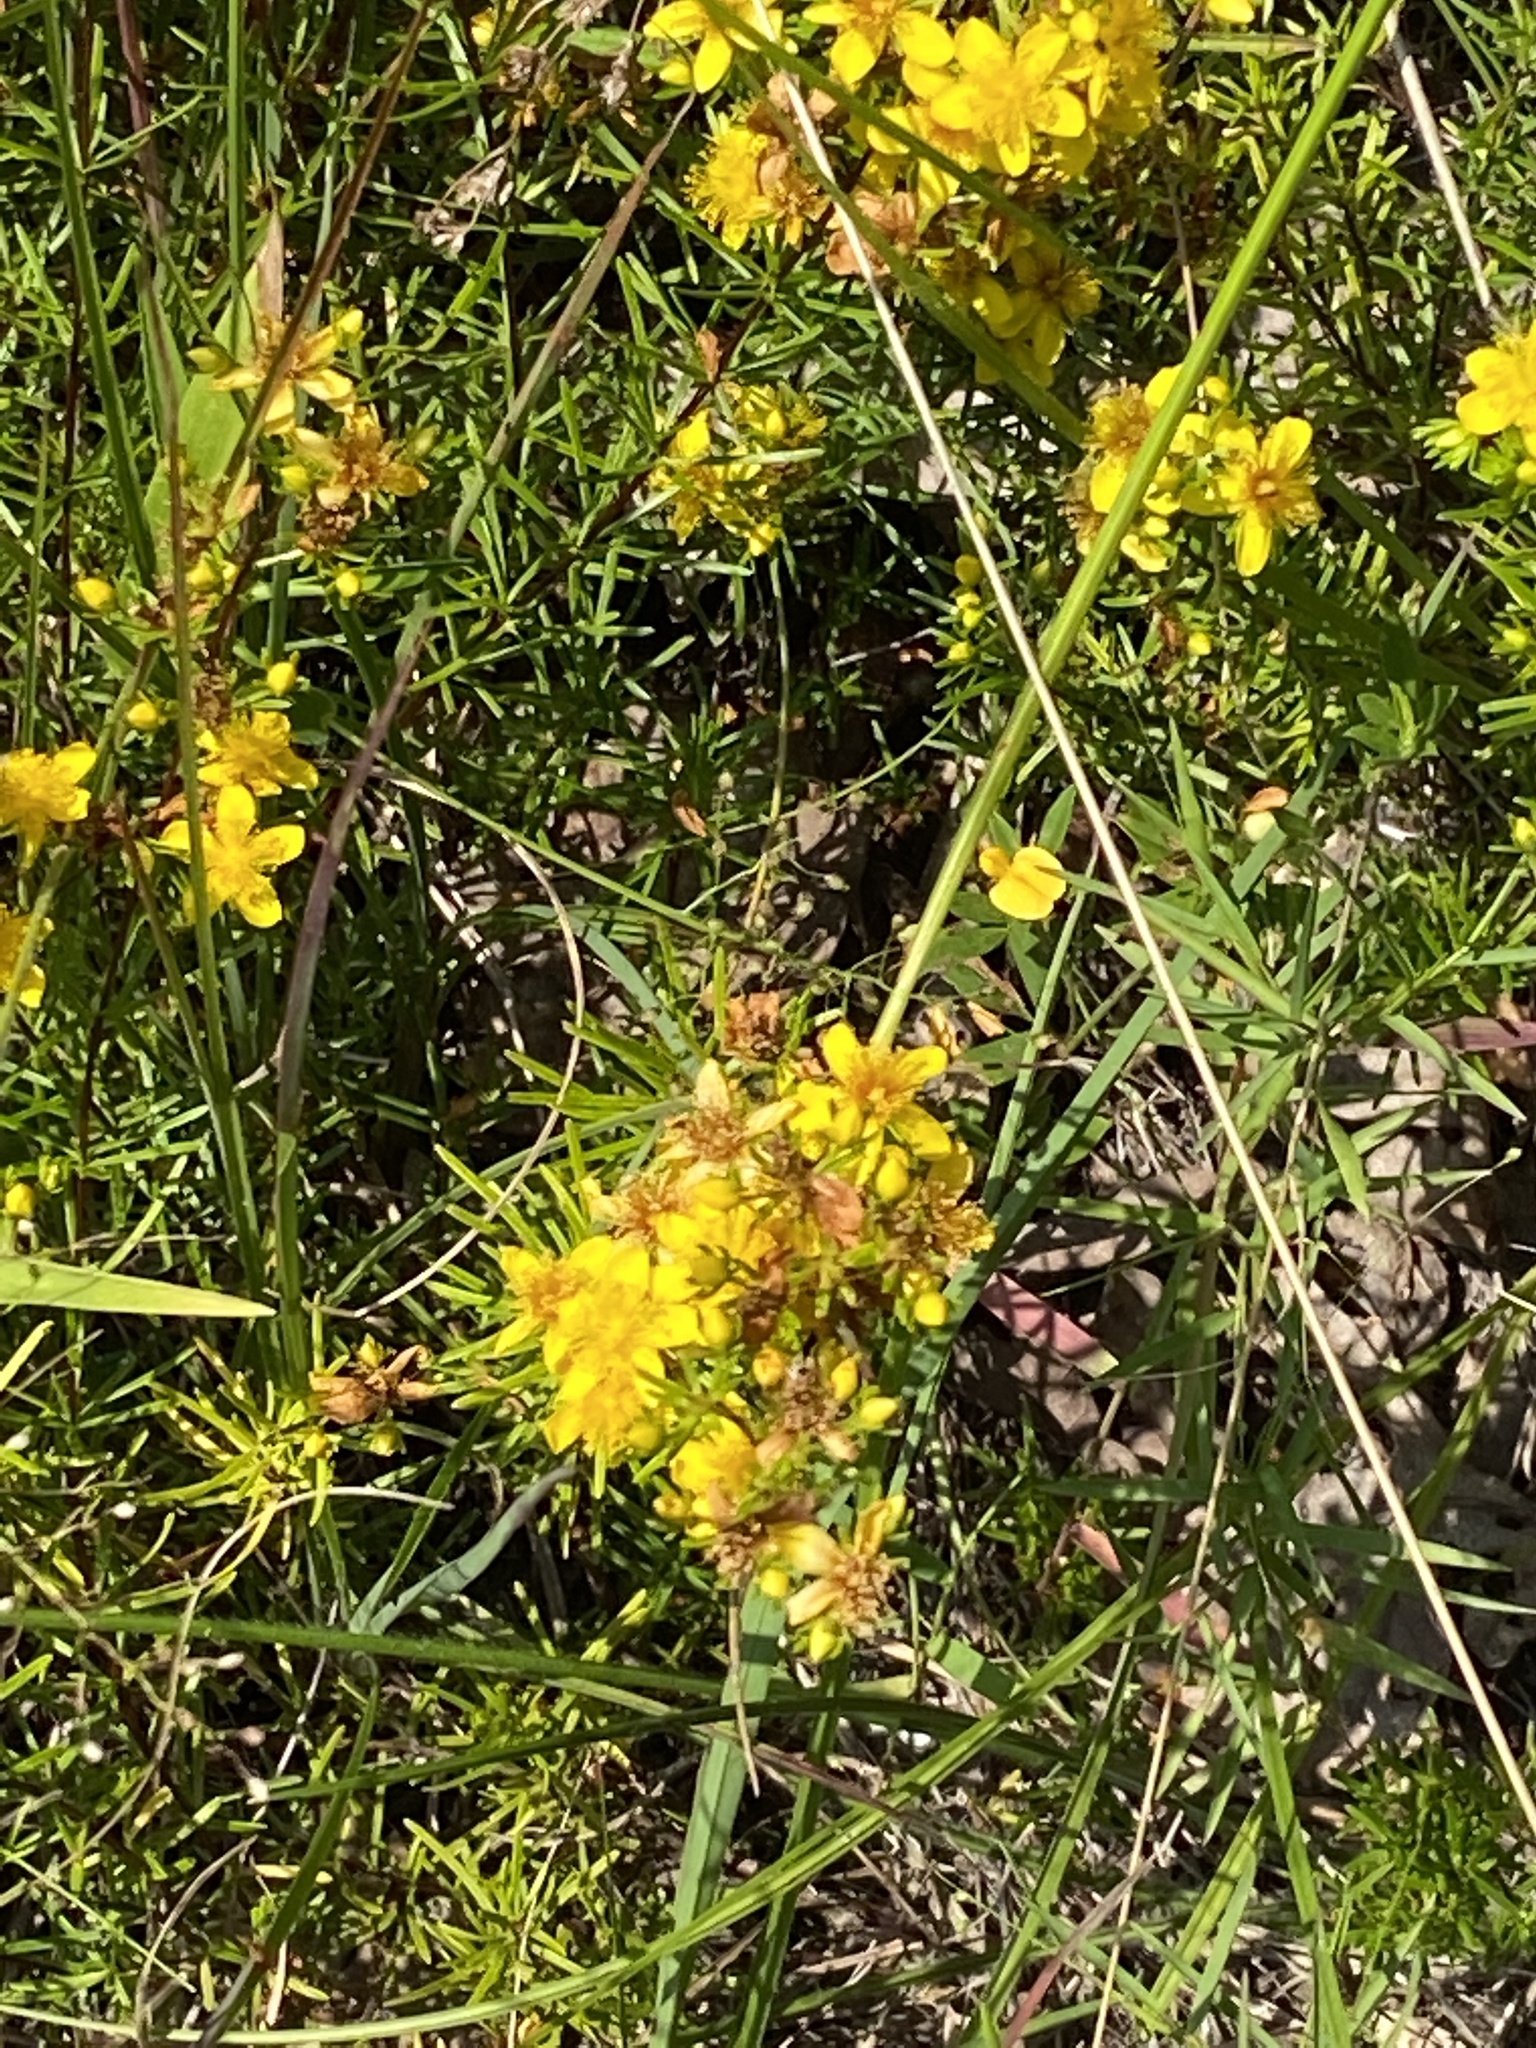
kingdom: Plantae
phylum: Tracheophyta
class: Magnoliopsida
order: Malpighiales
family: Hypericaceae
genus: Hypericum
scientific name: Hypericum lloydii
